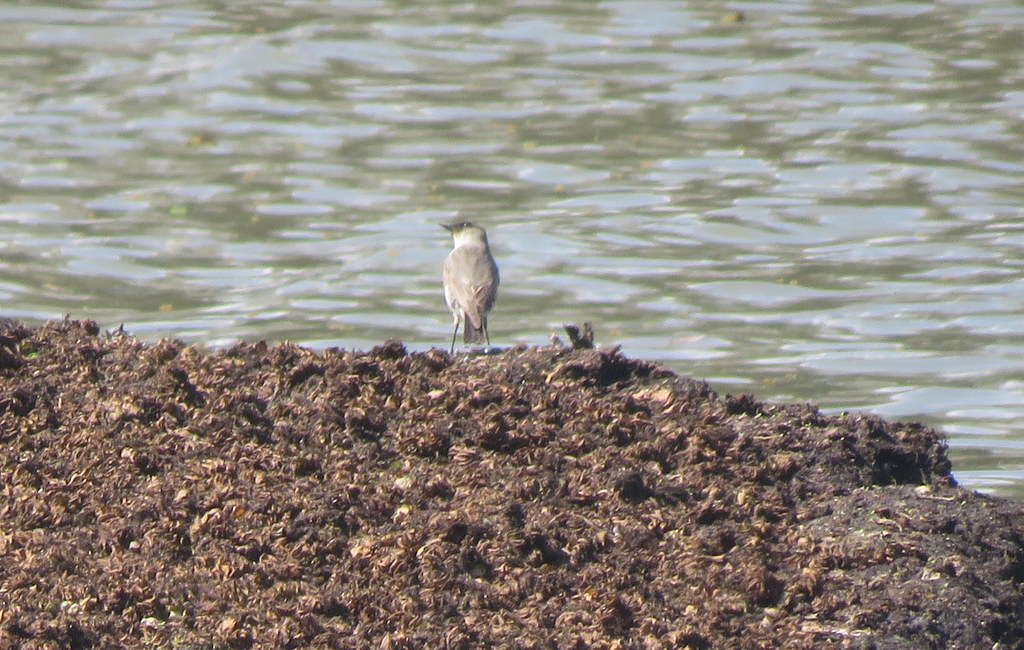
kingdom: Animalia
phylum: Chordata
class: Aves
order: Passeriformes
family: Tyrannidae
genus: Muscisaxicola
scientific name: Muscisaxicola maclovianus
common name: Dark-faced ground tyrant
